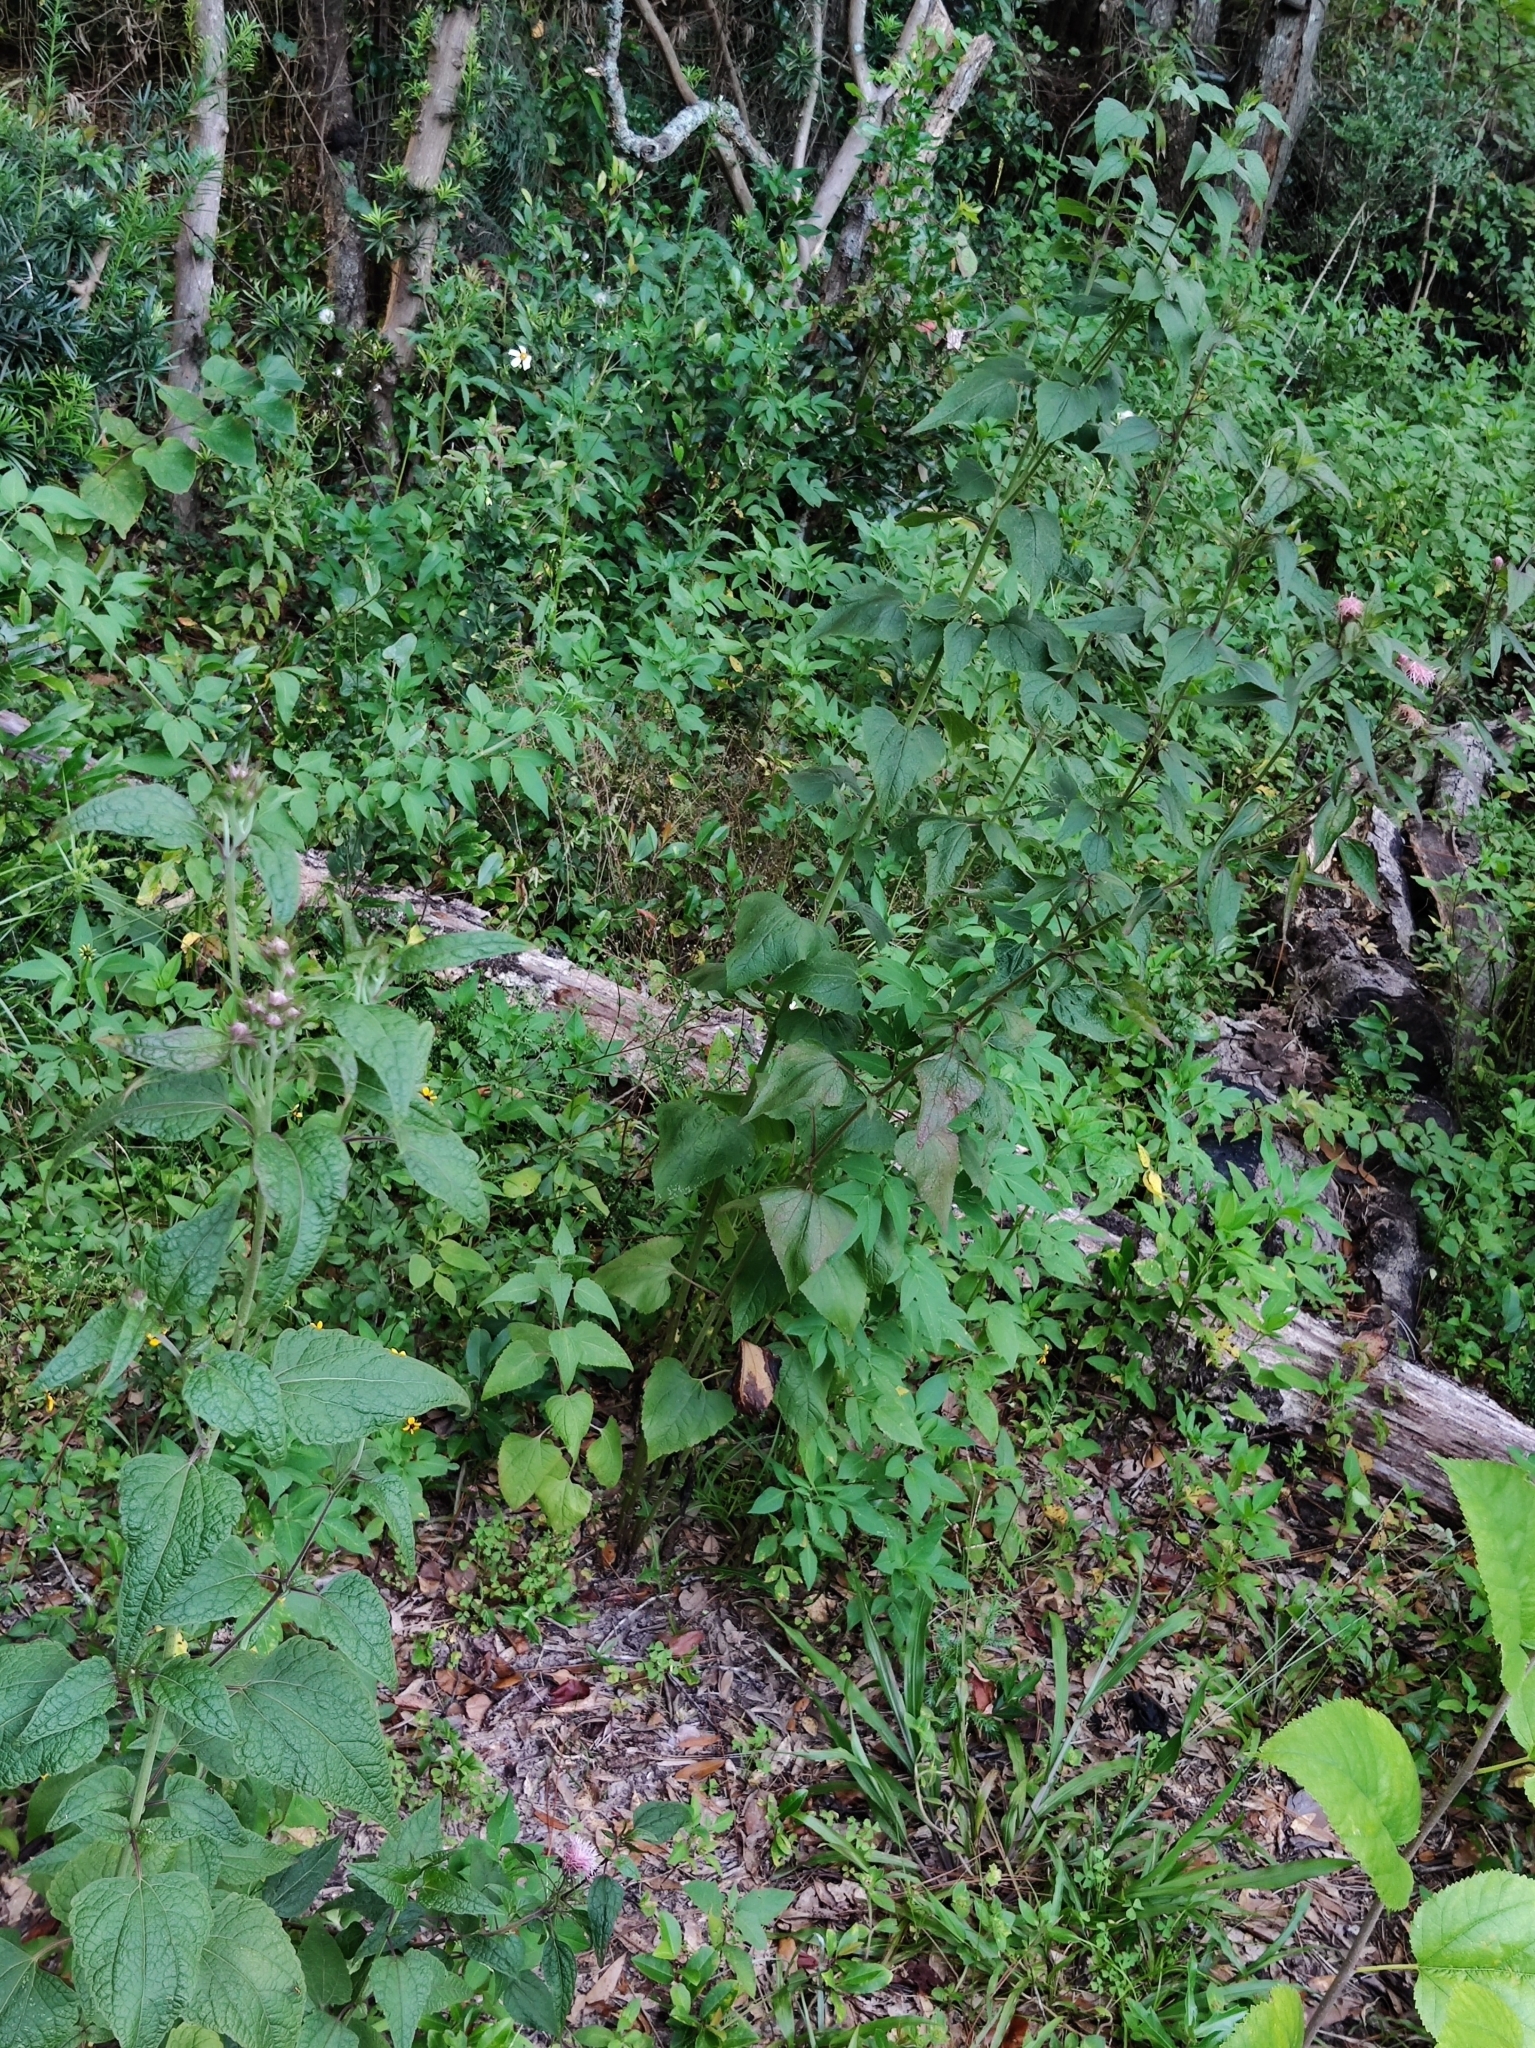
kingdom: Plantae
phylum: Tracheophyta
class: Magnoliopsida
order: Asterales
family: Asteraceae
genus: Brickellia
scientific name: Brickellia cordifolia
